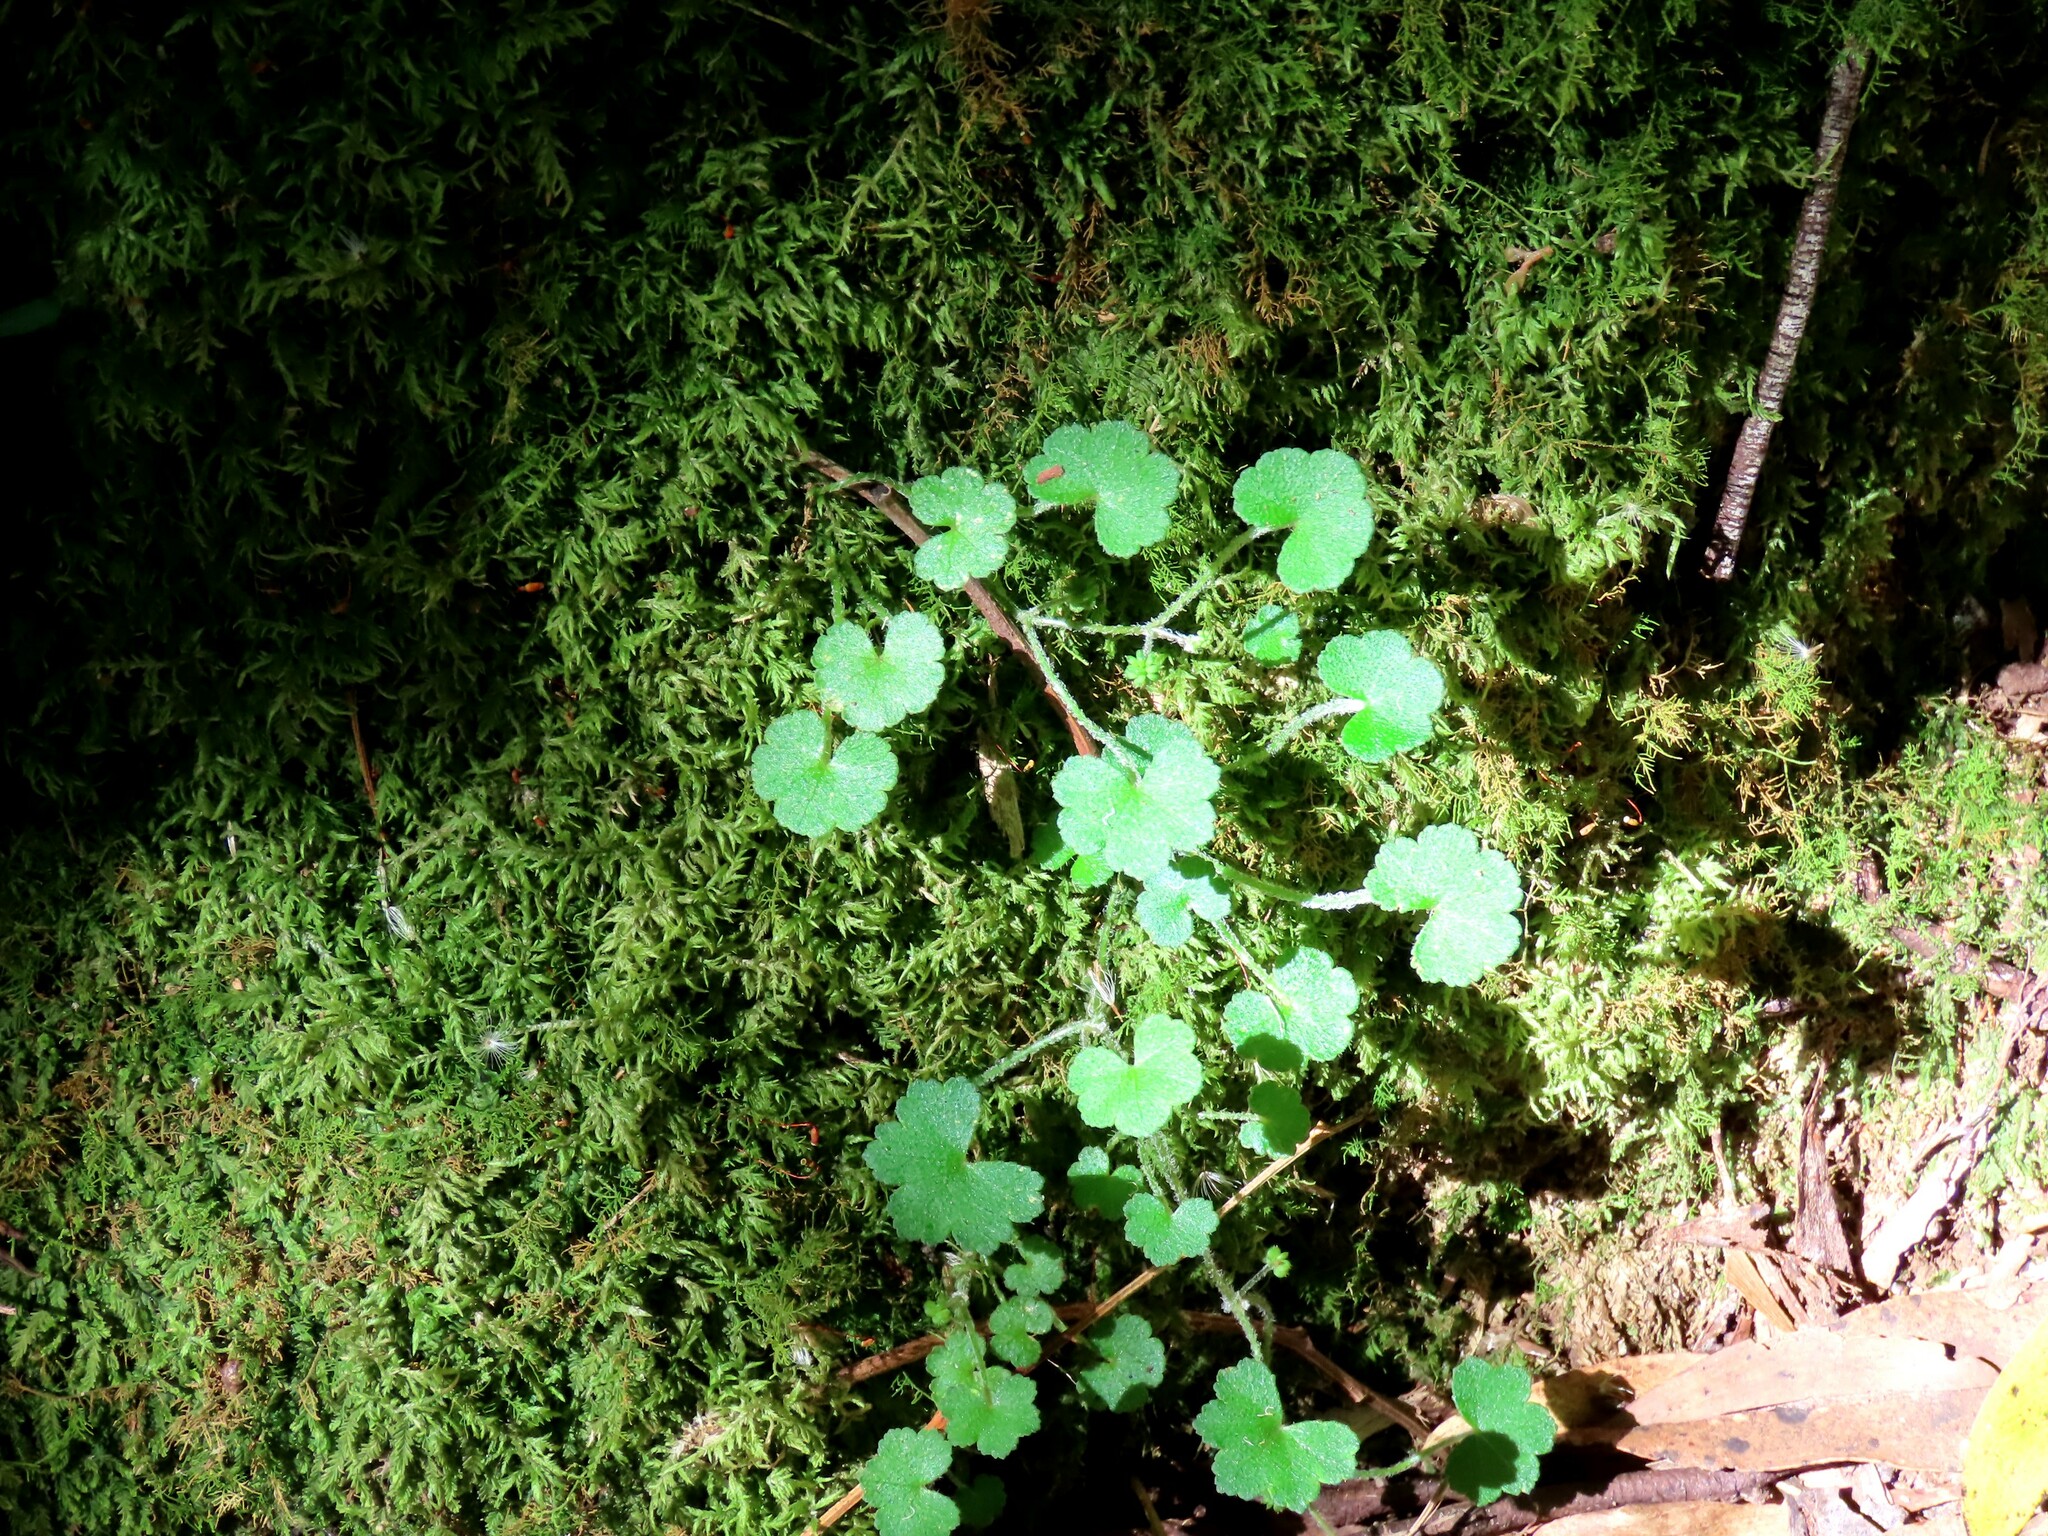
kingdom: Plantae
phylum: Tracheophyta
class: Magnoliopsida
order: Apiales
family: Araliaceae
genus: Hydrocotyle
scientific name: Hydrocotyle hirta
